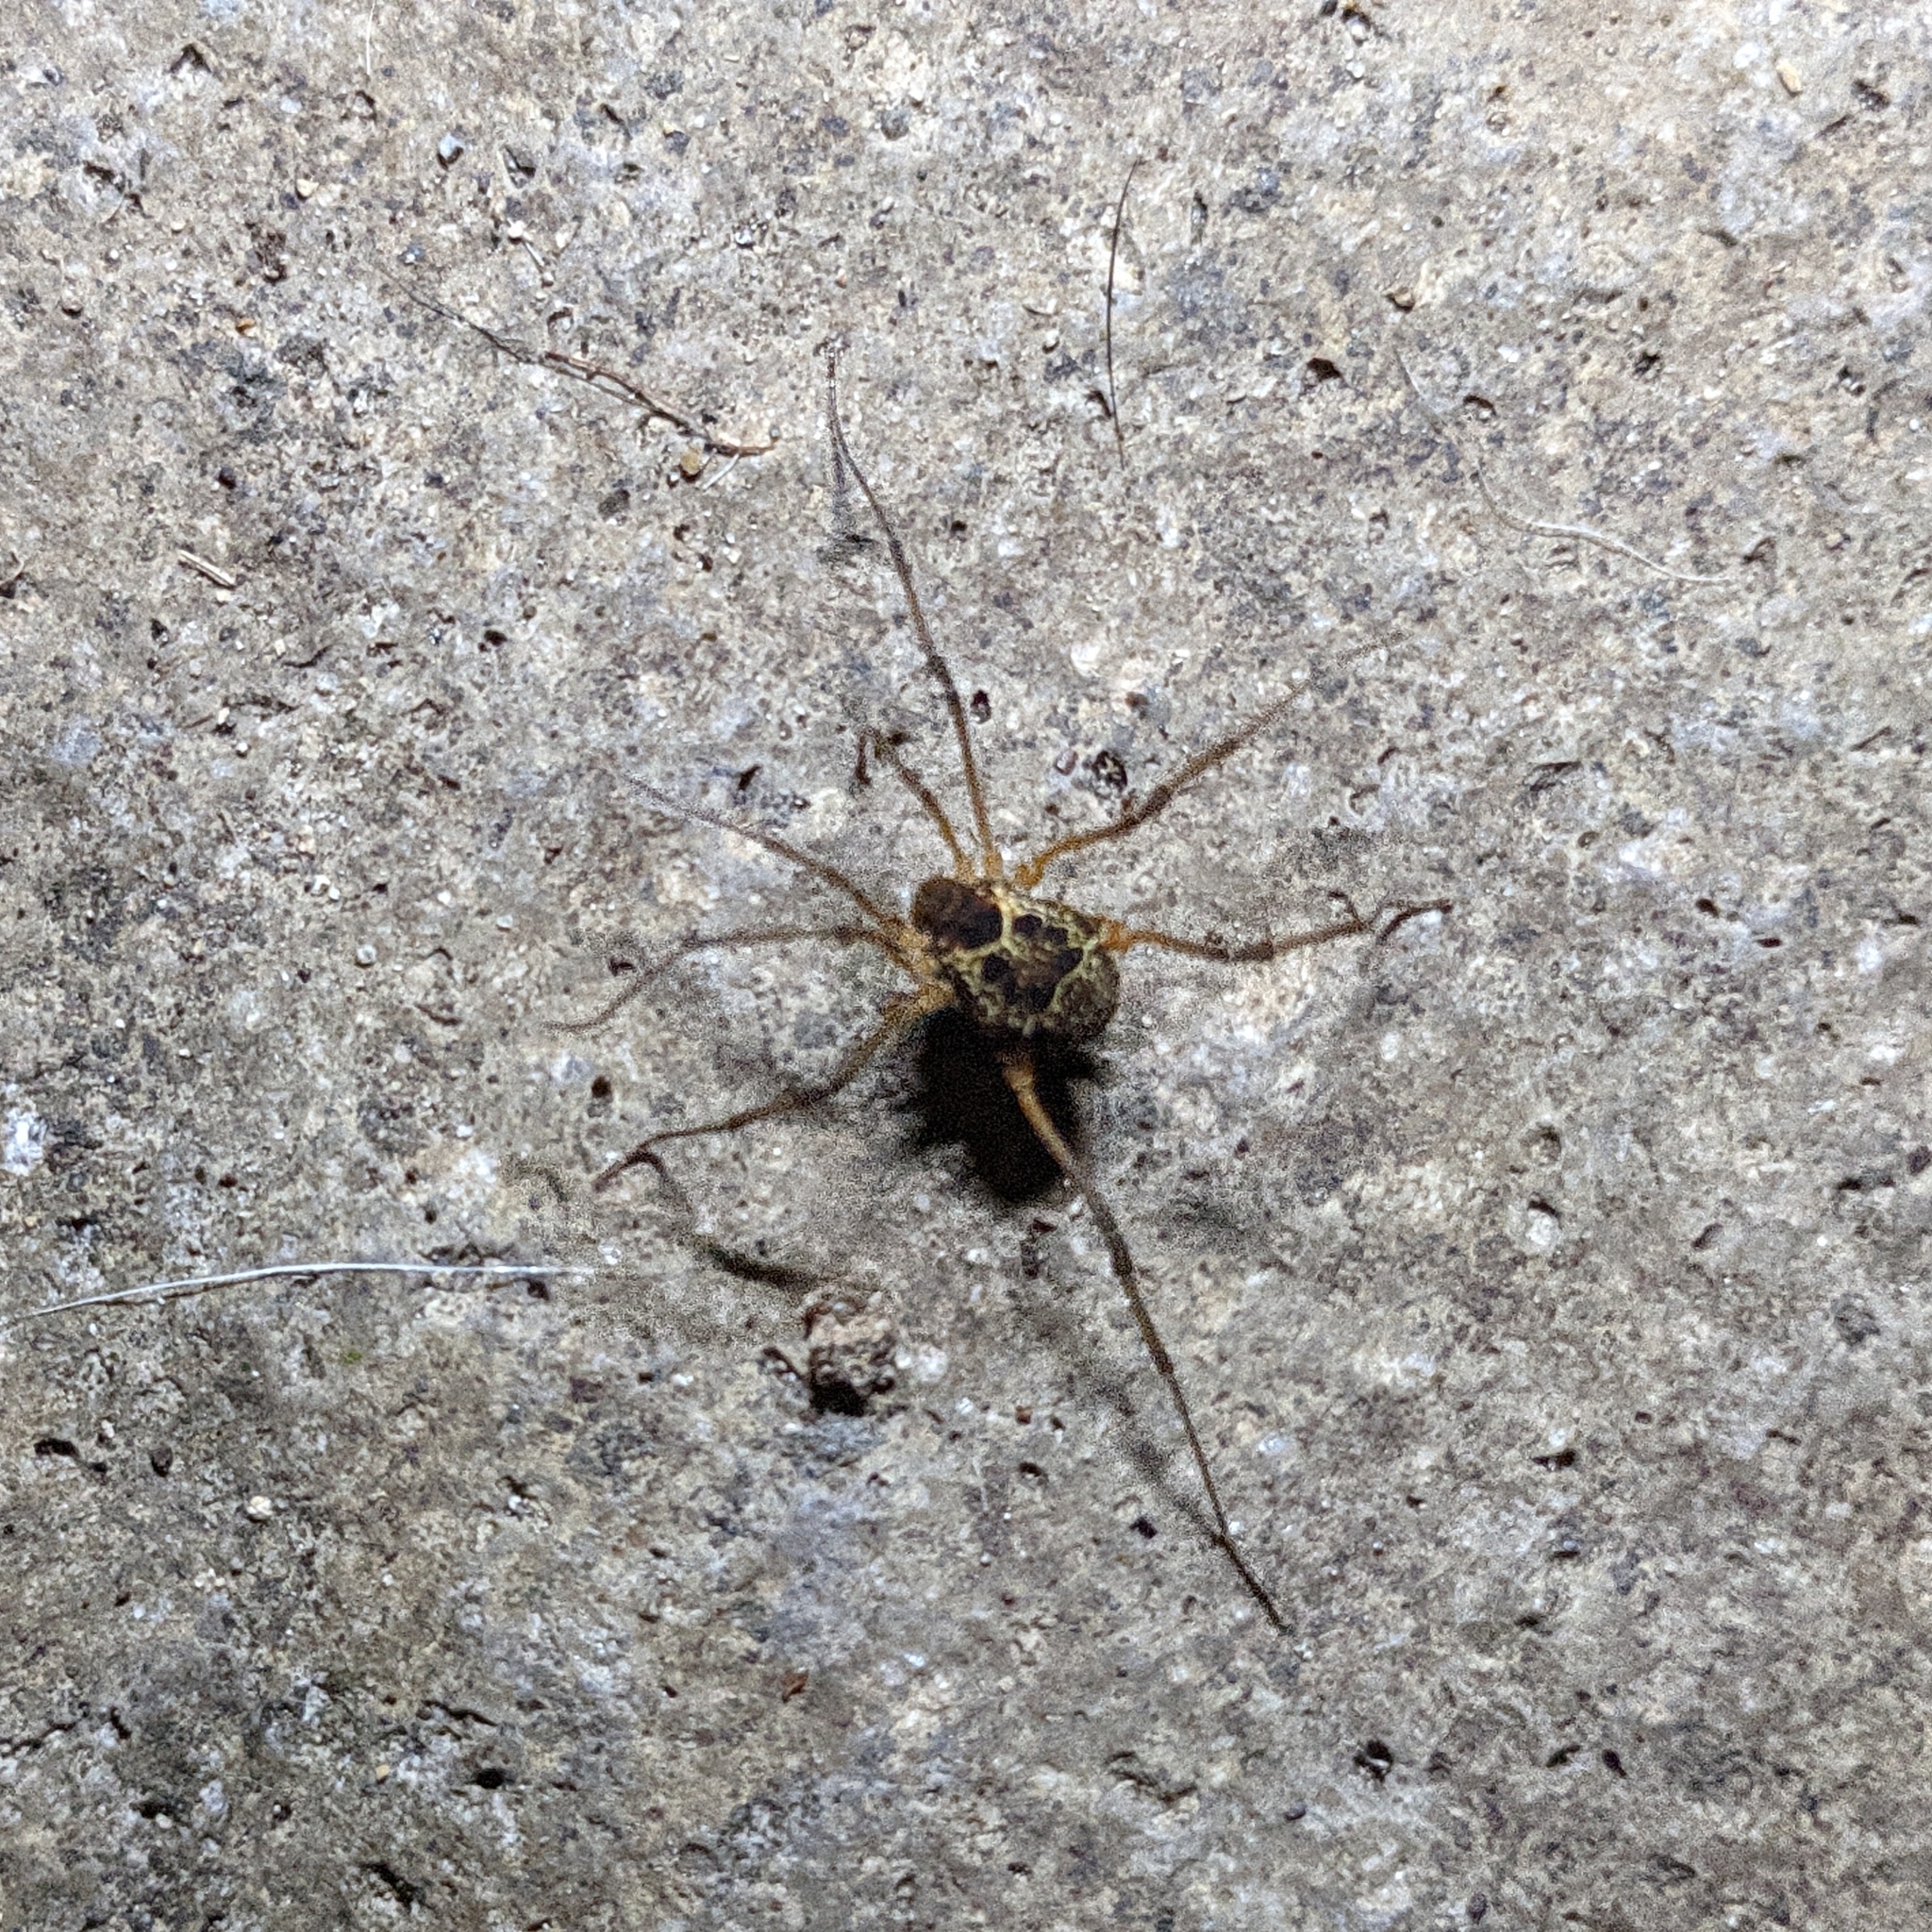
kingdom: Animalia
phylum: Arthropoda
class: Arachnida
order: Opiliones
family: Cosmetidae
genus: Eucynortula
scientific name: Eucynortula albipunctata
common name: Harvestmen
